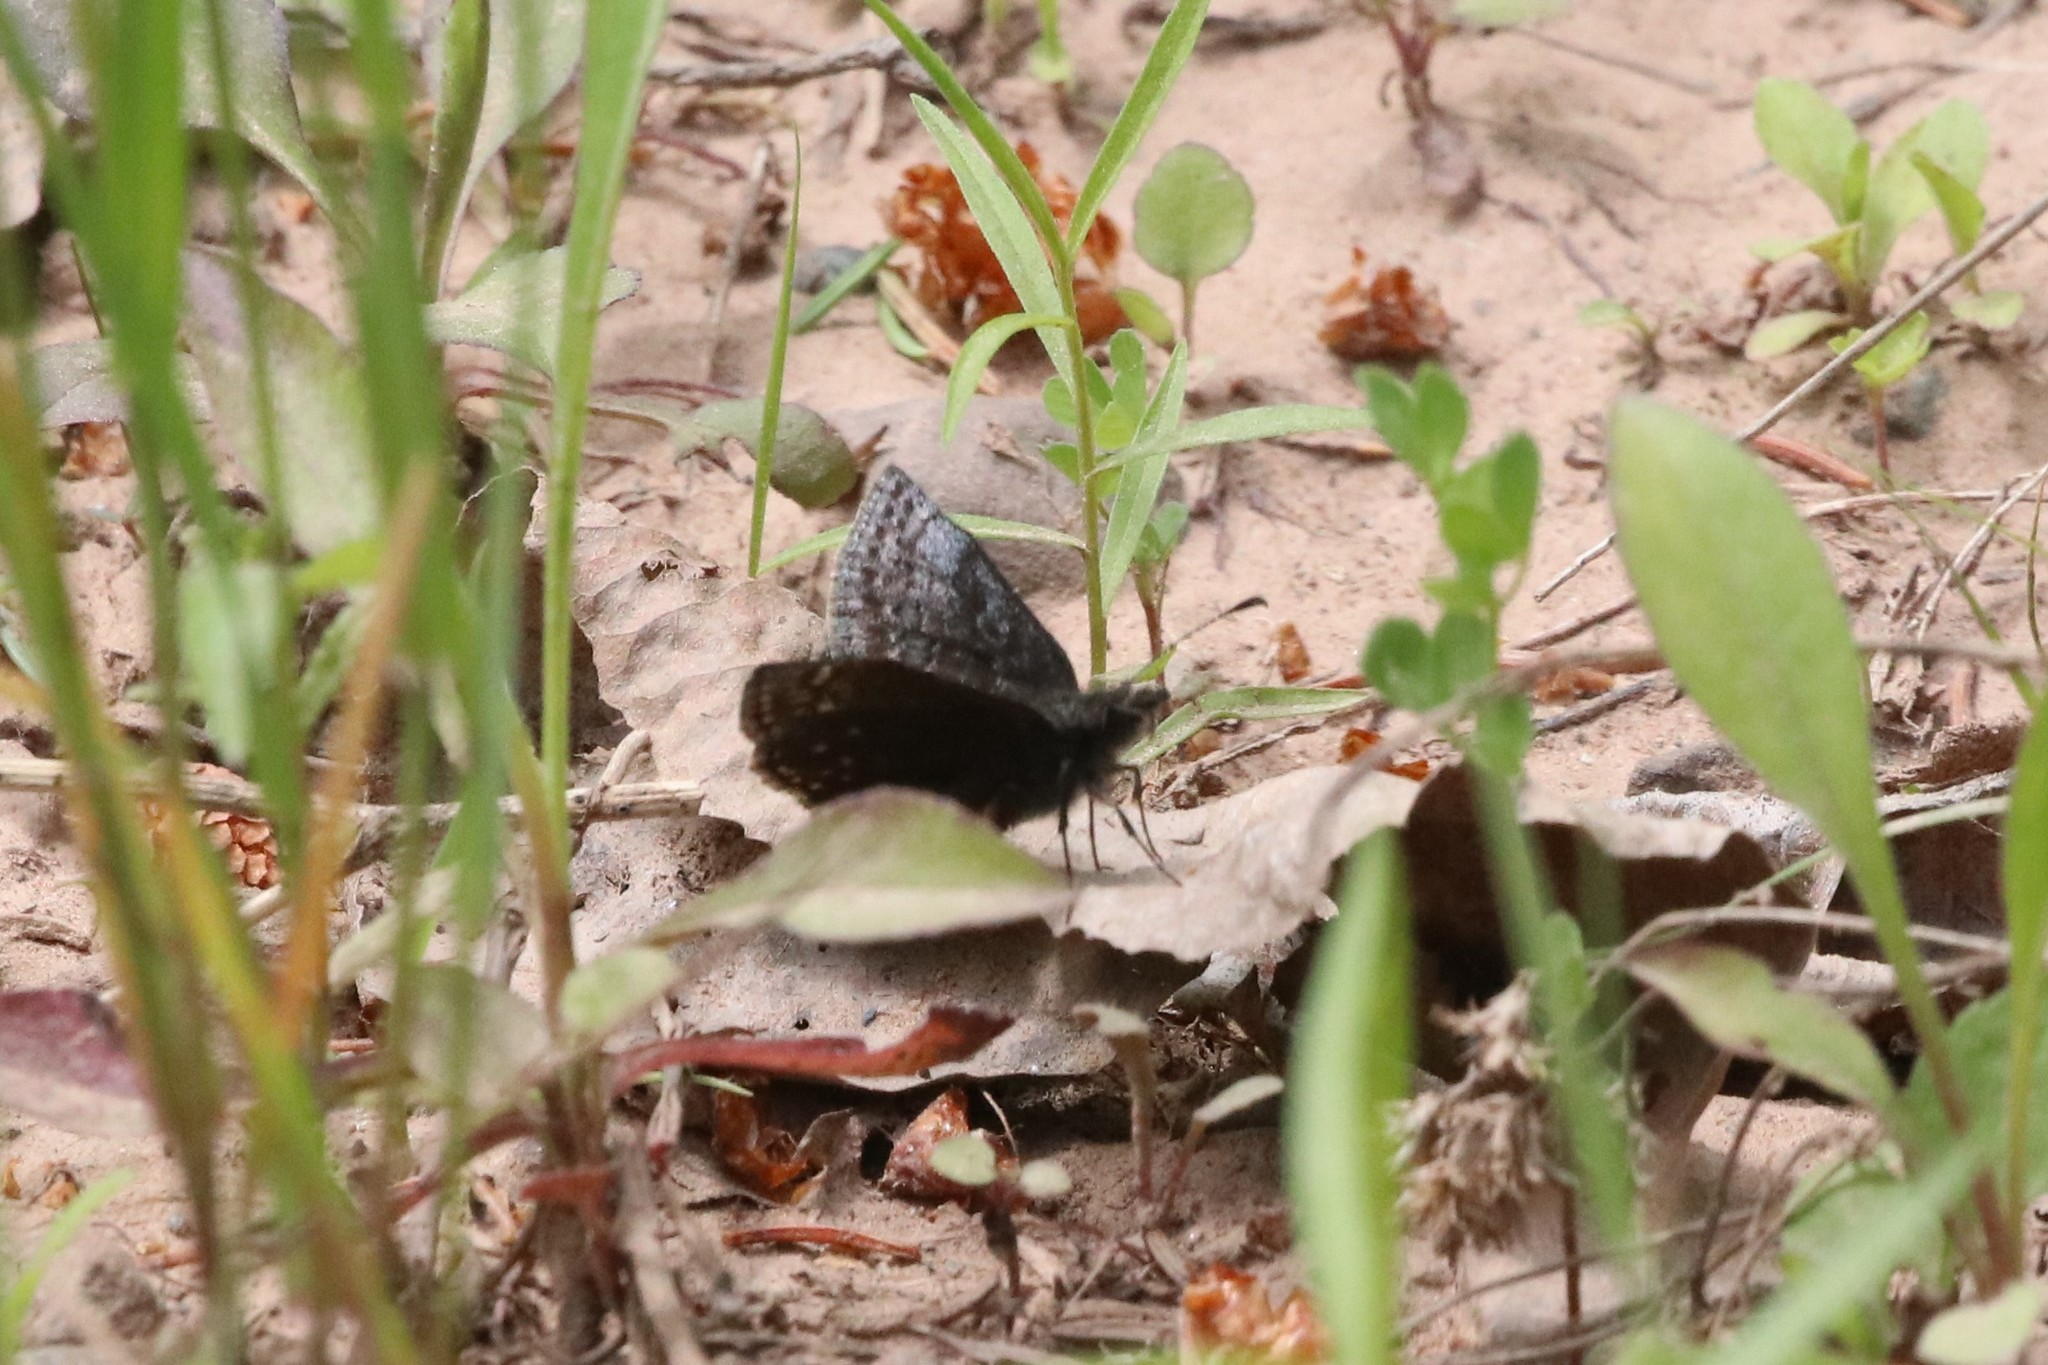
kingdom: Animalia
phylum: Arthropoda
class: Insecta
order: Lepidoptera
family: Hesperiidae
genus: Erynnis
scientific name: Erynnis icelus
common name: Dreamy duskywing
